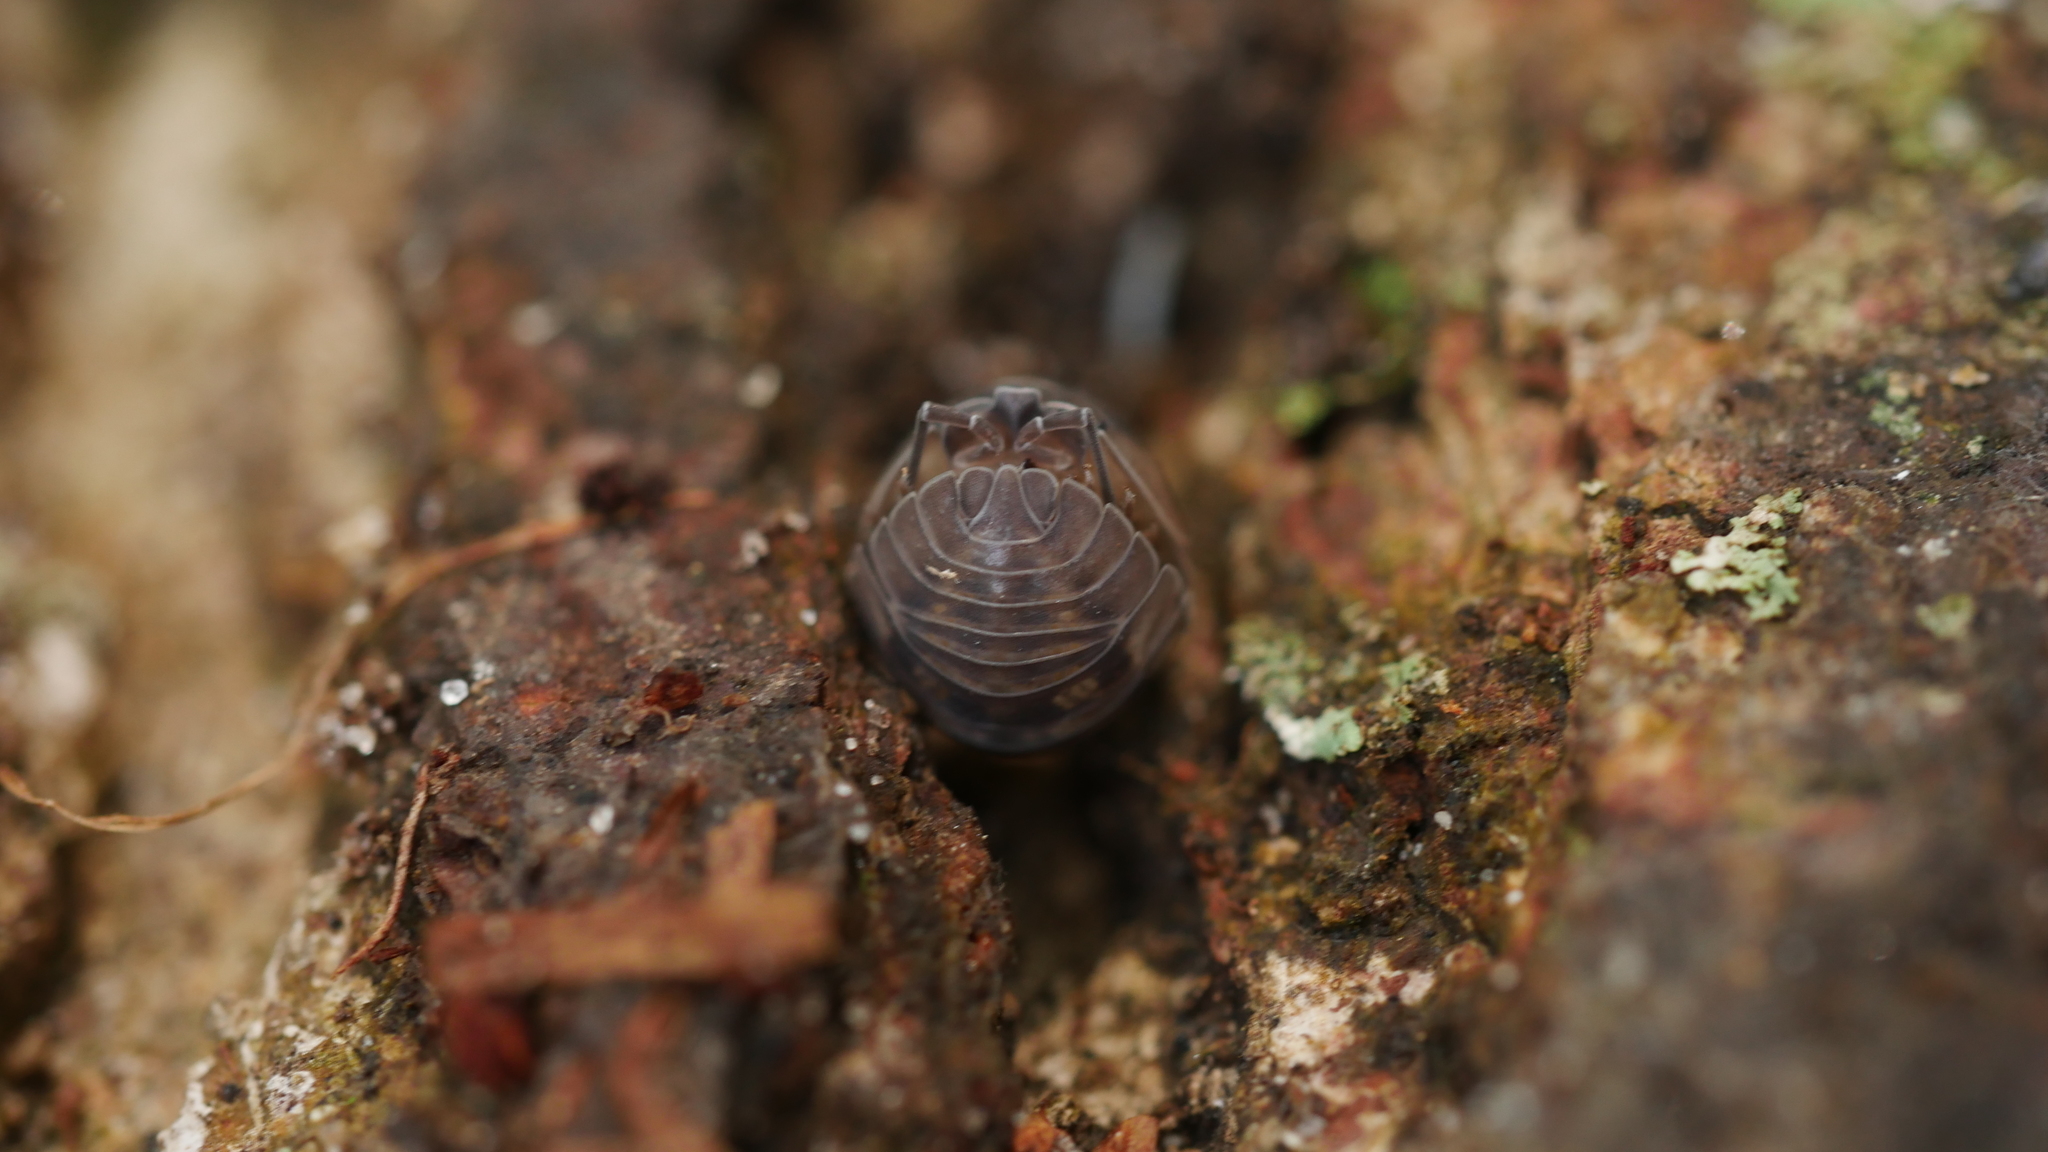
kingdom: Animalia
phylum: Arthropoda
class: Malacostraca
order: Isopoda
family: Armadillidiidae
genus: Armadillidium
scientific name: Armadillidium nasatum
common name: Isopod
